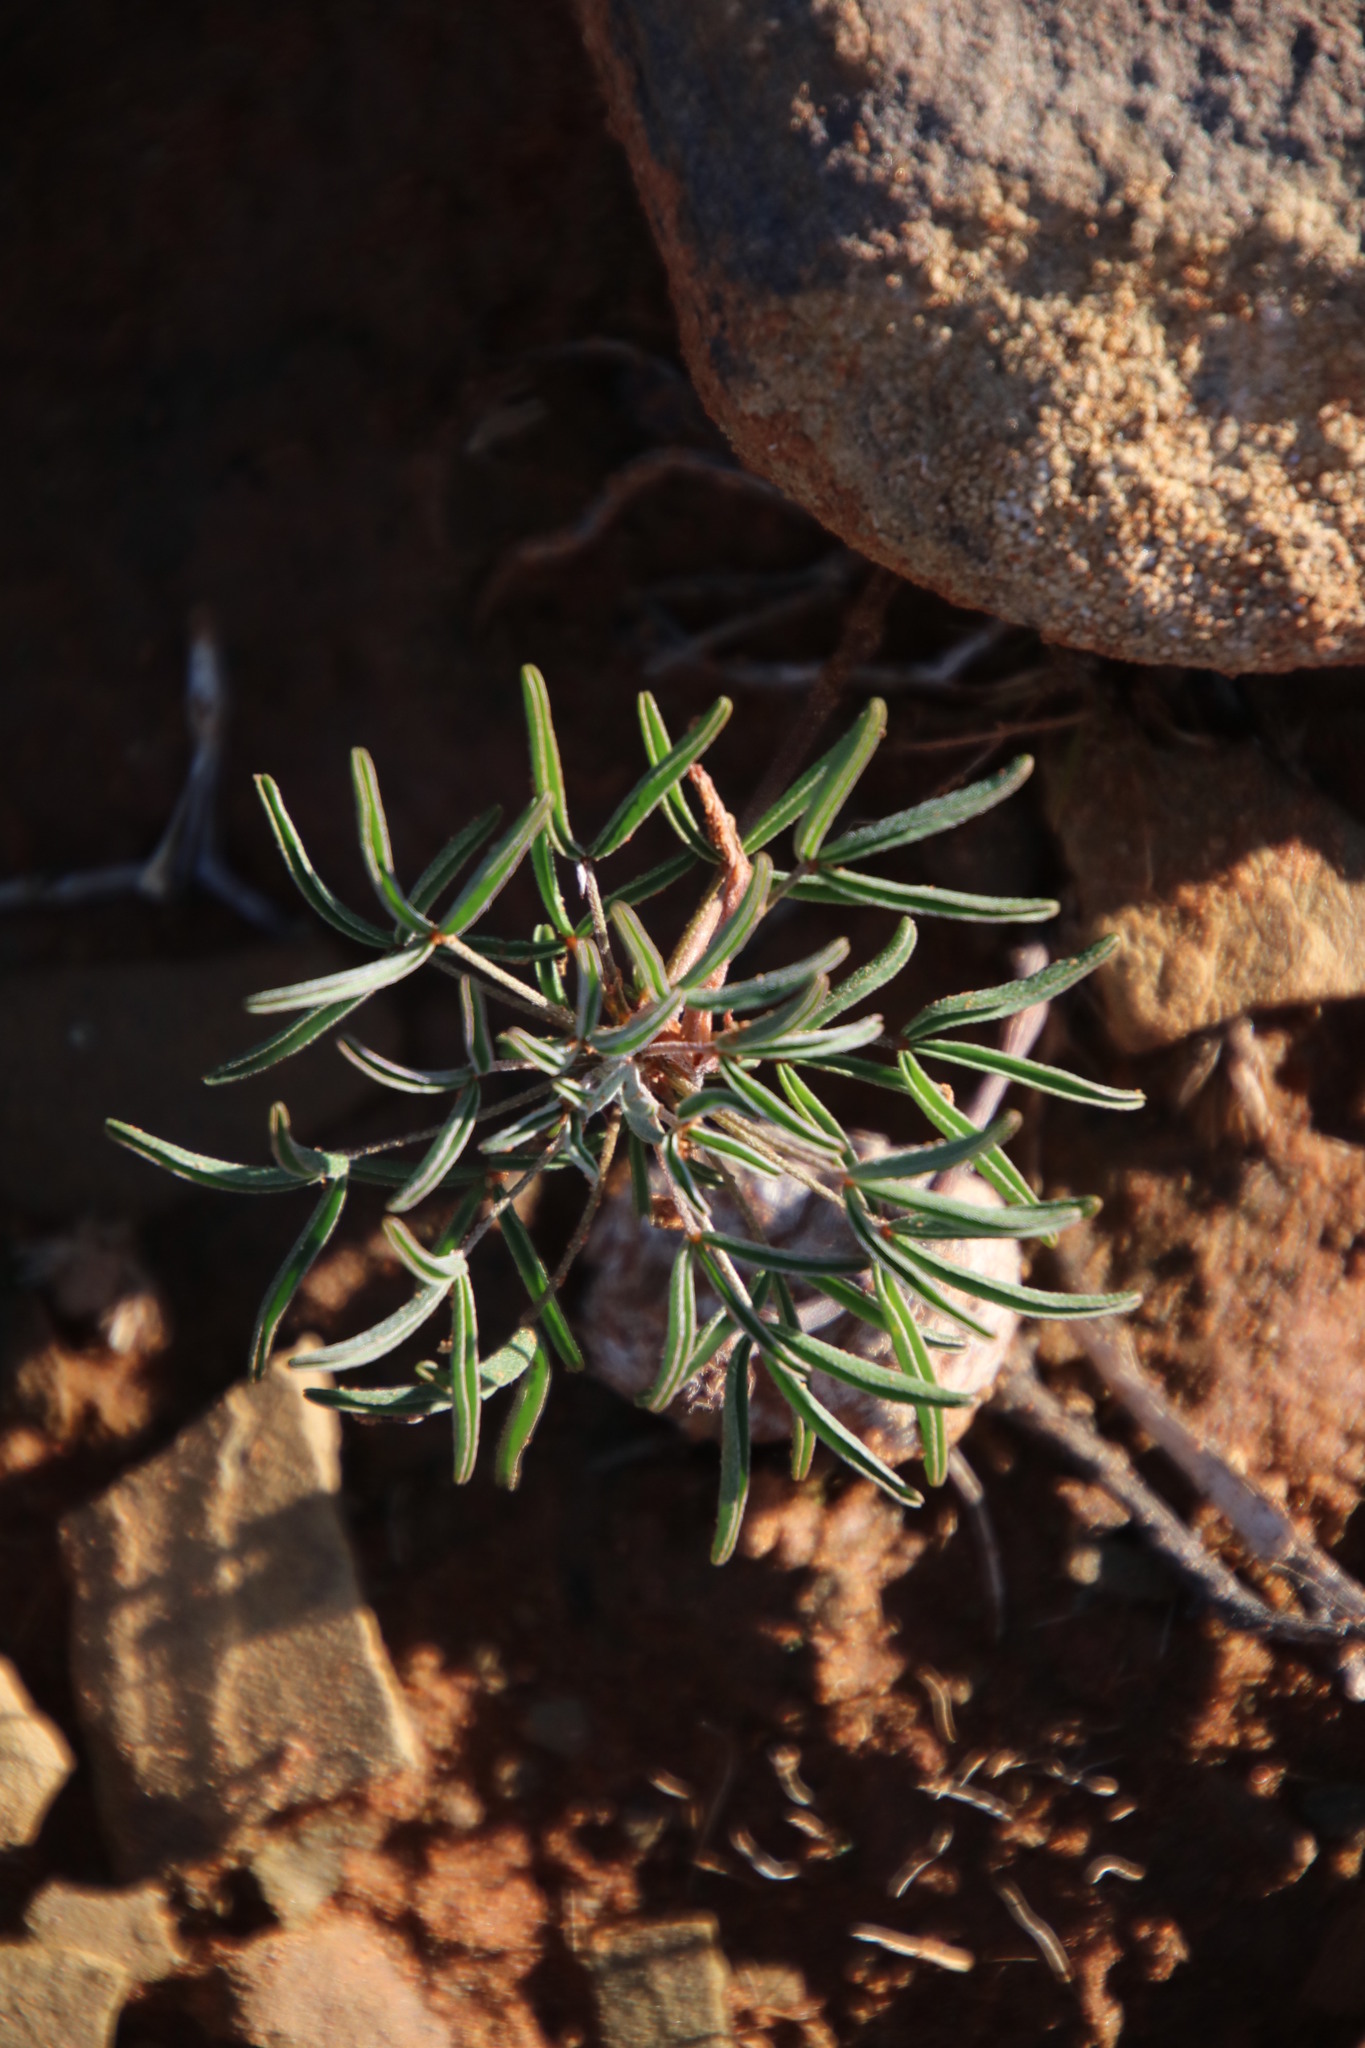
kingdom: Plantae
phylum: Tracheophyta
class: Magnoliopsida
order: Oxalidales
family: Oxalidaceae
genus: Oxalis
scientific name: Oxalis primuloides
